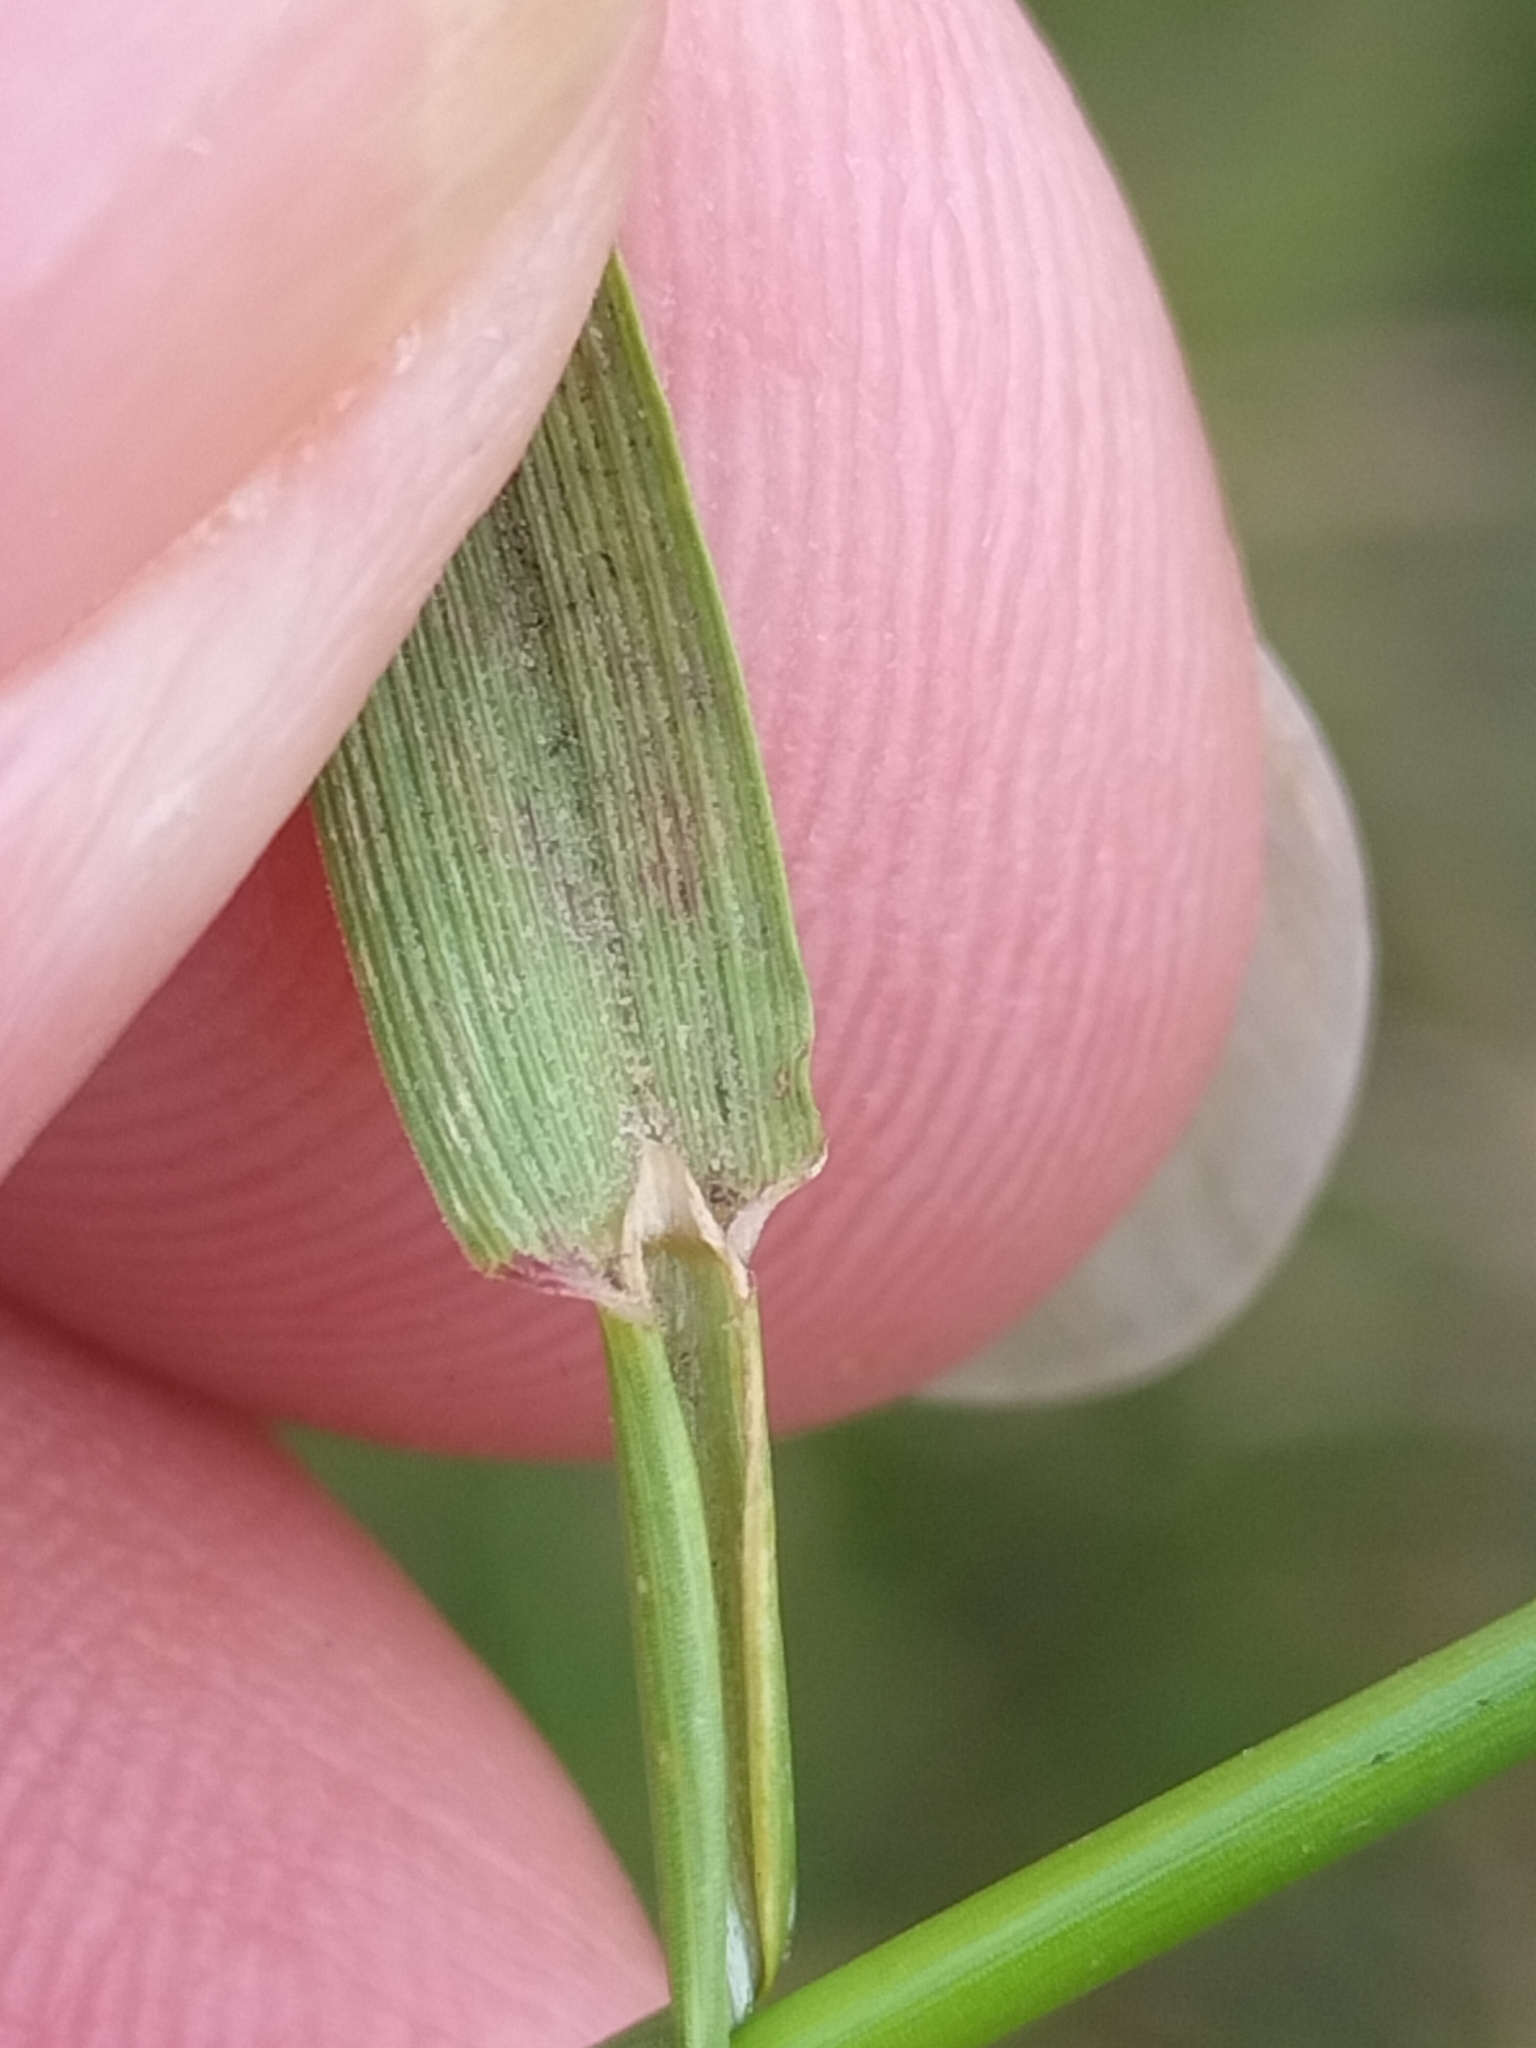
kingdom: Plantae
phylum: Tracheophyta
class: Liliopsida
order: Poales
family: Poaceae
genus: Agrostis
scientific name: Agrostis capillaris
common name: Colonial bentgrass
